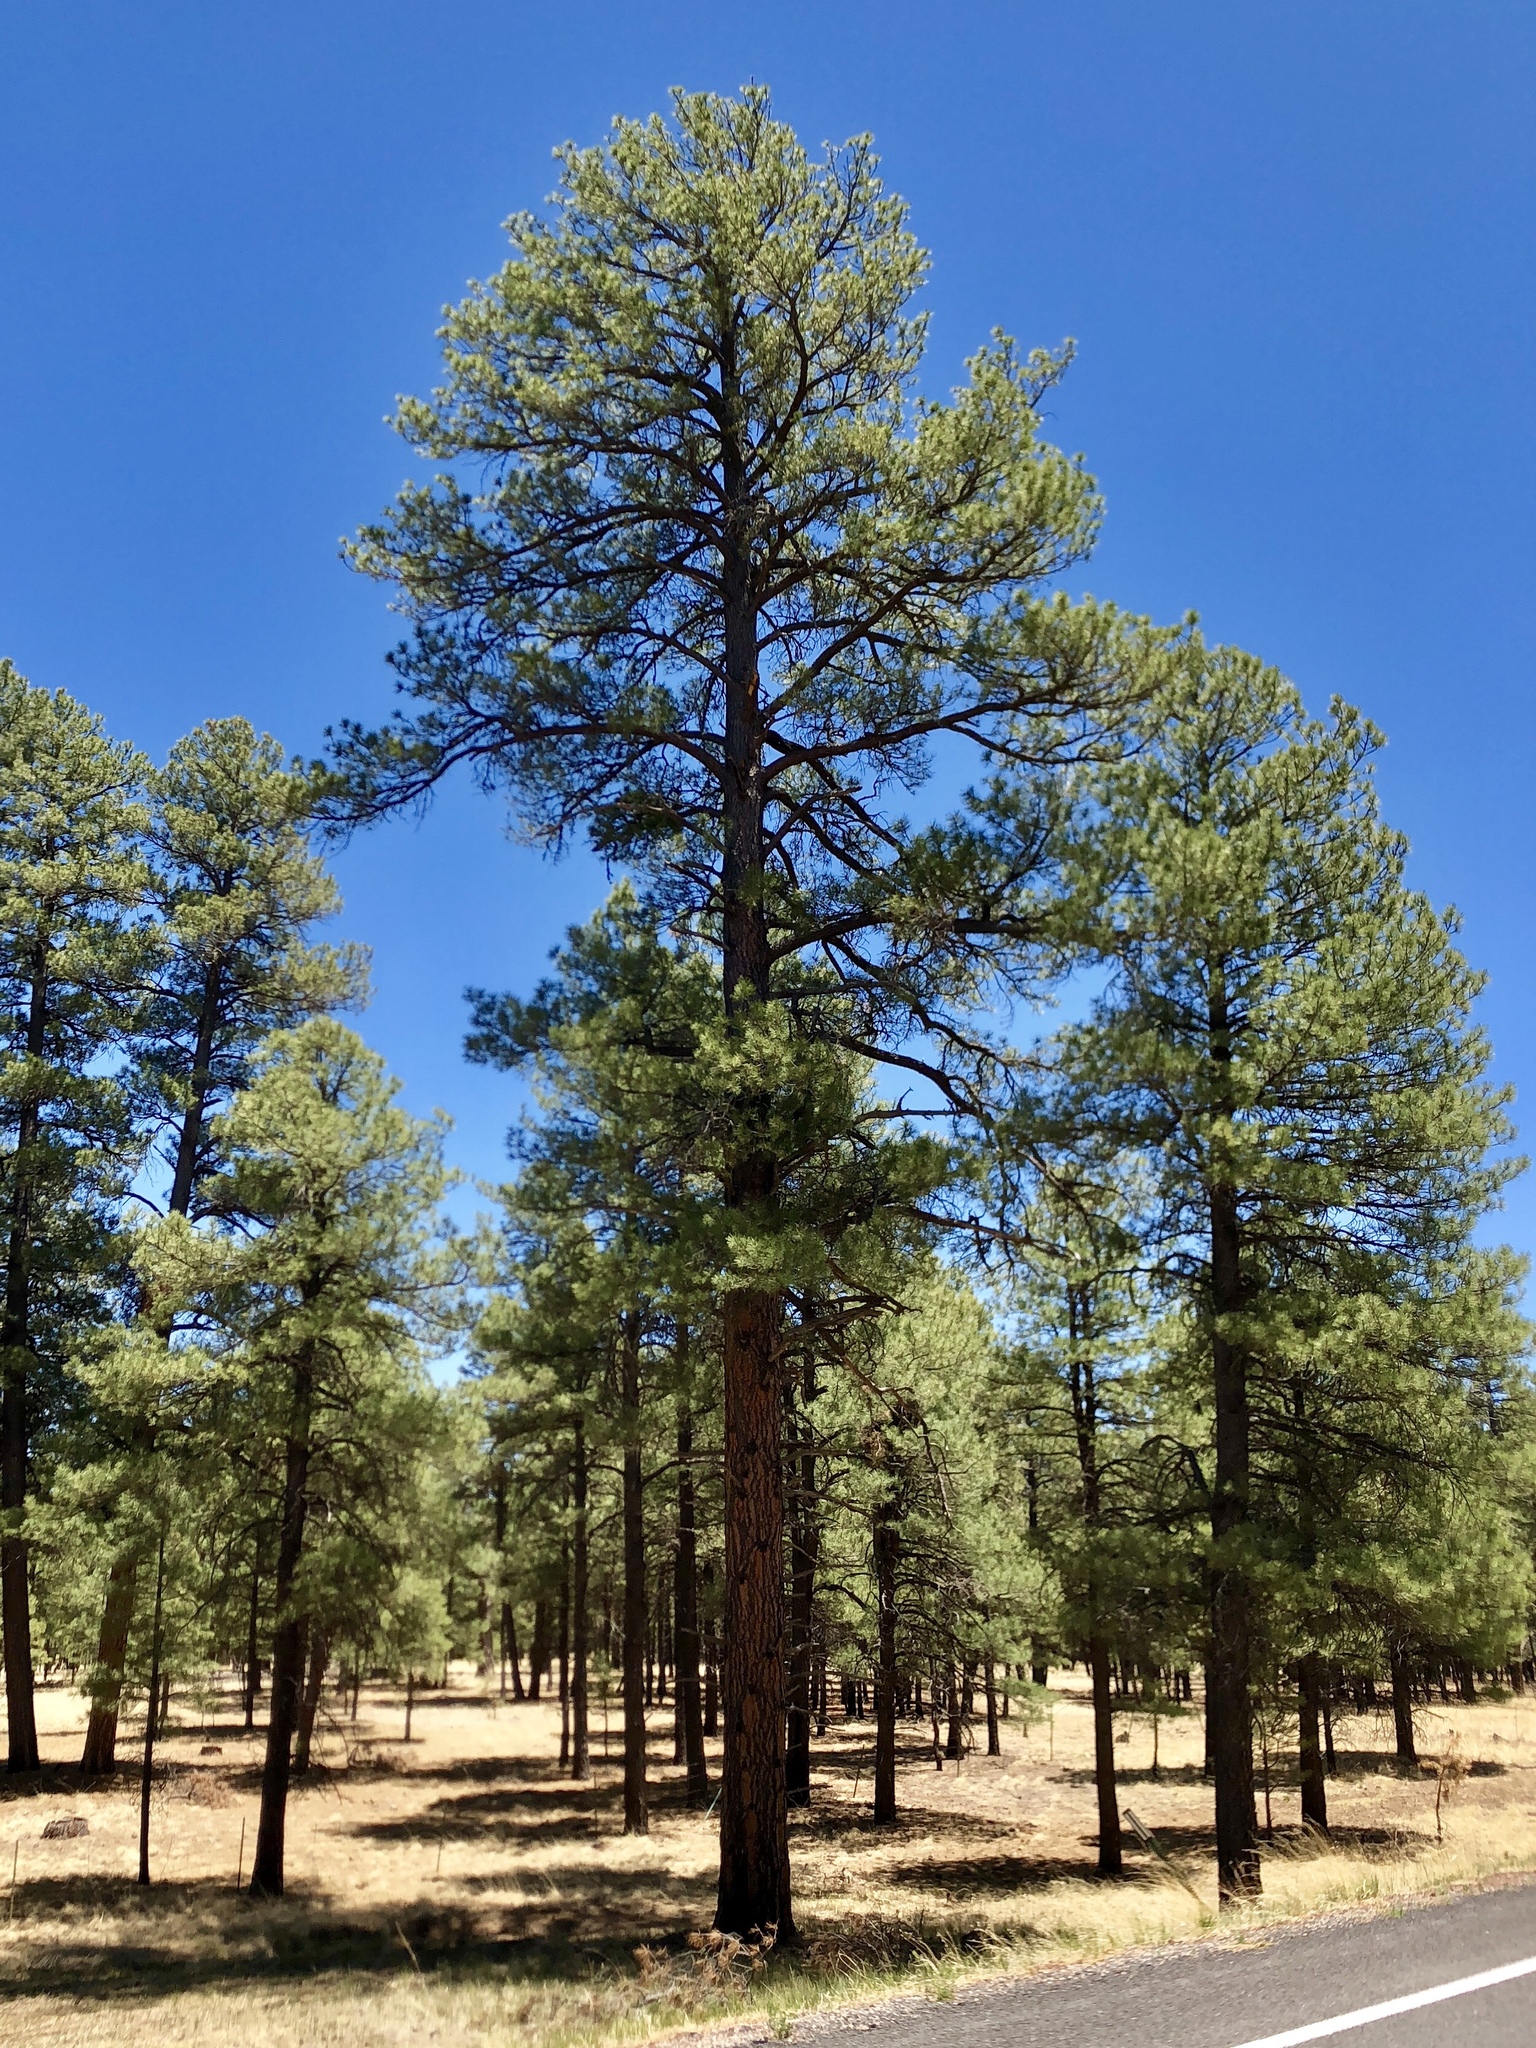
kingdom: Plantae
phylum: Tracheophyta
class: Pinopsida
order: Pinales
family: Pinaceae
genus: Pinus
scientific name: Pinus ponderosa
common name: Western yellow-pine
